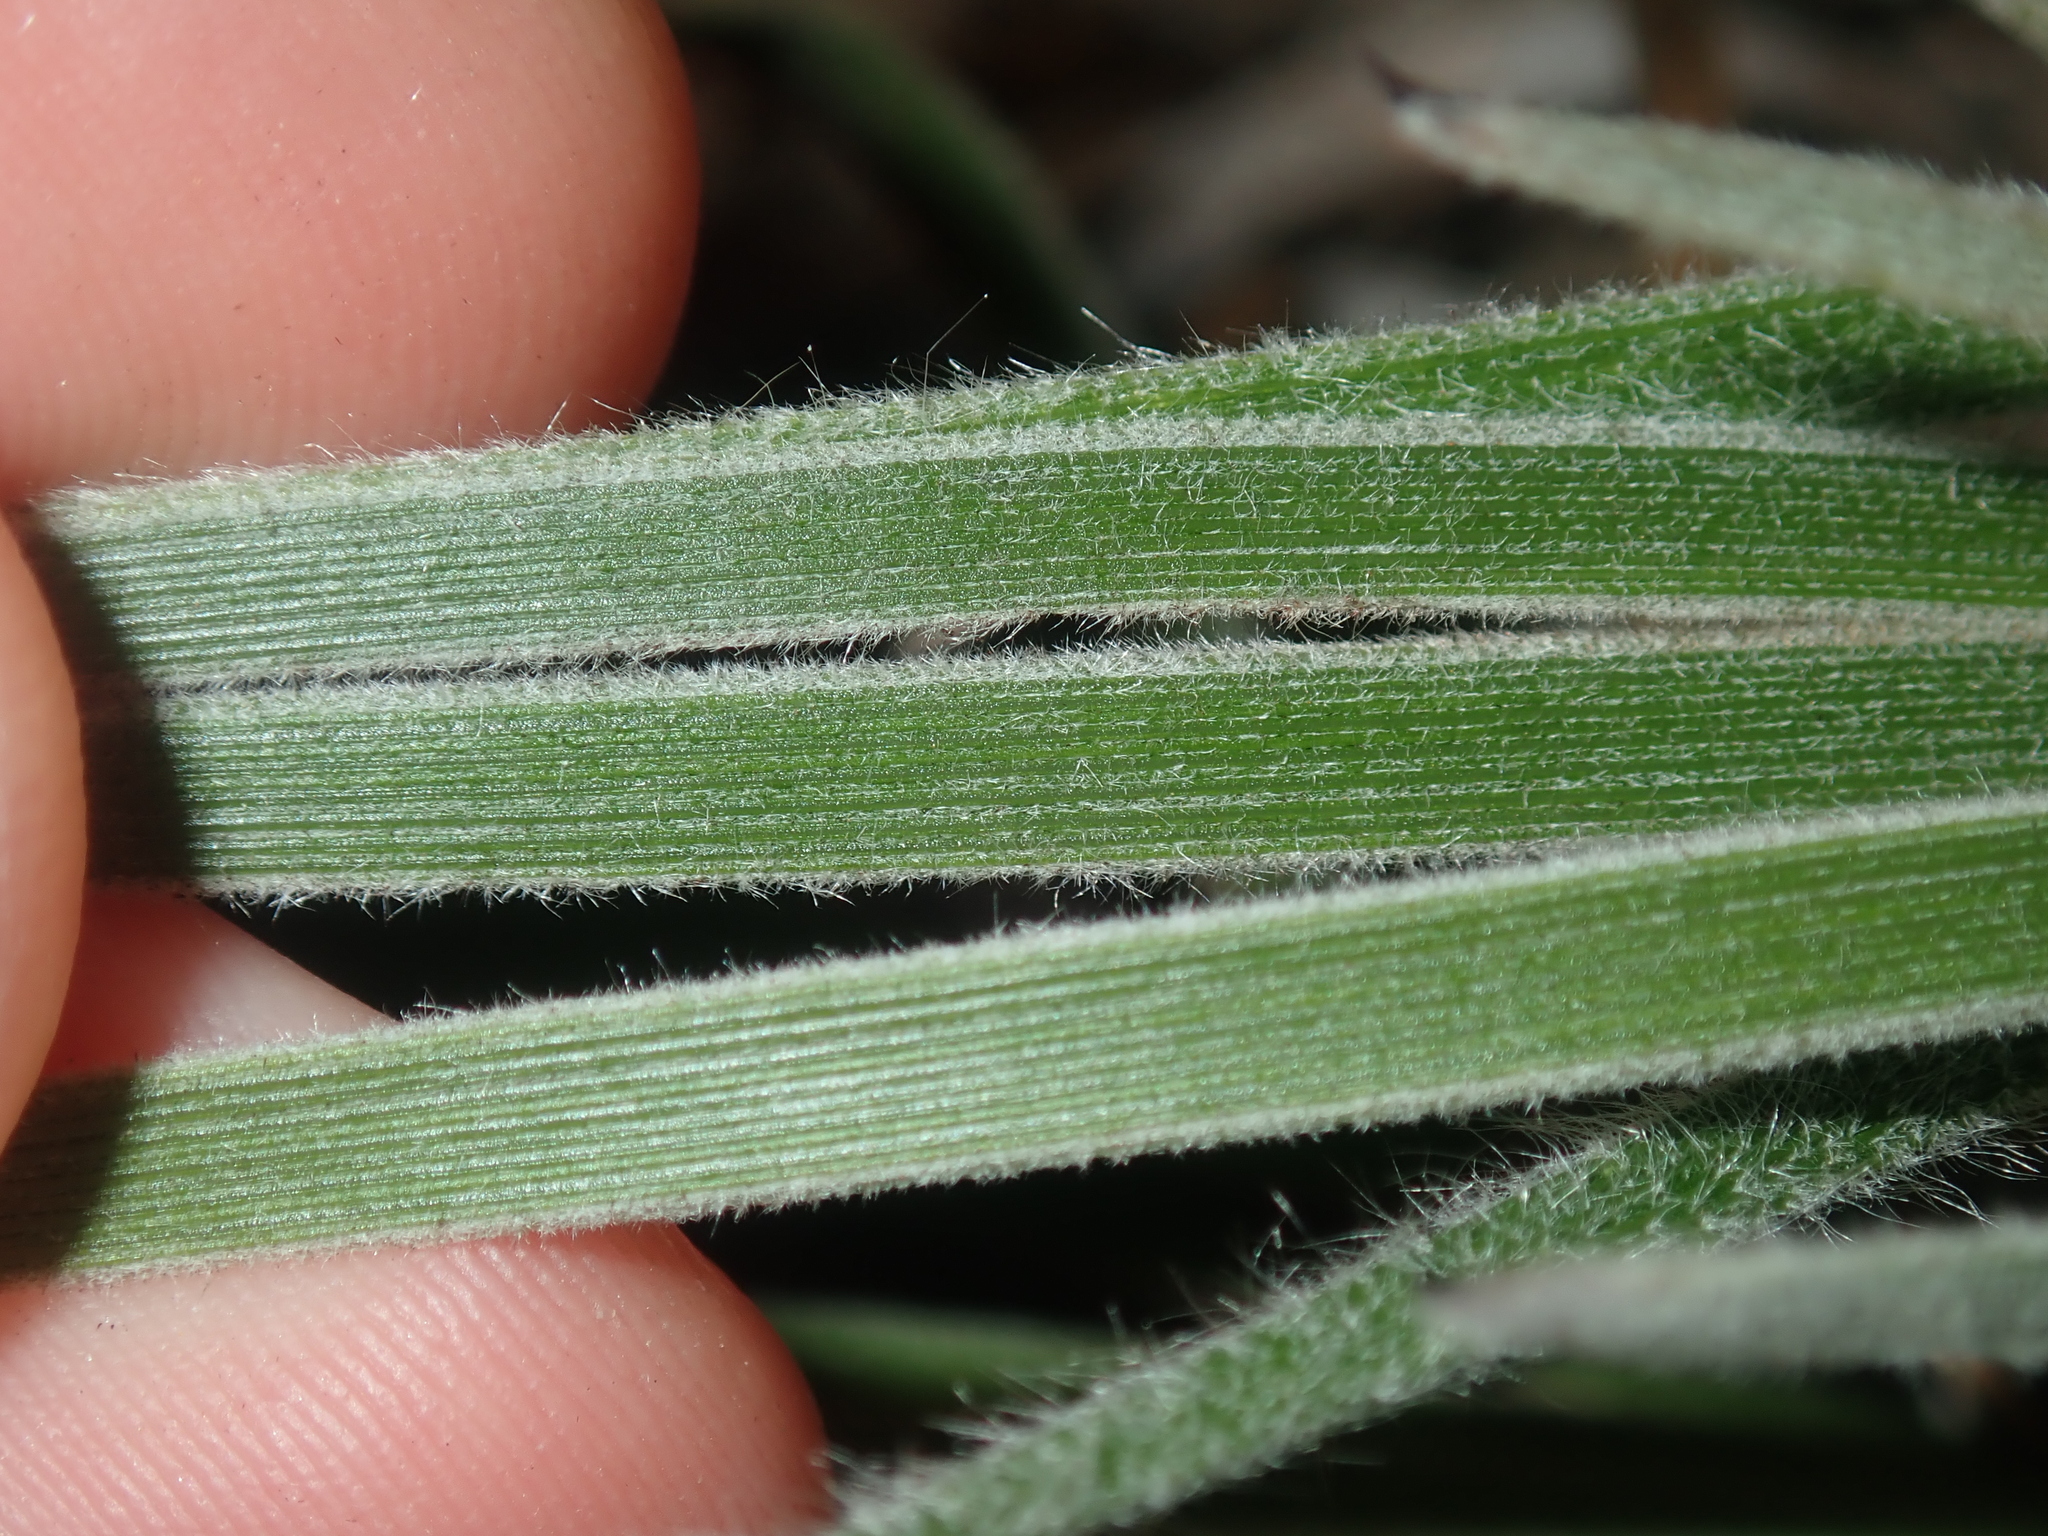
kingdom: Plantae
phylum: Tracheophyta
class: Liliopsida
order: Commelinales
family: Haemodoraceae
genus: Blancoa
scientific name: Blancoa canescens
